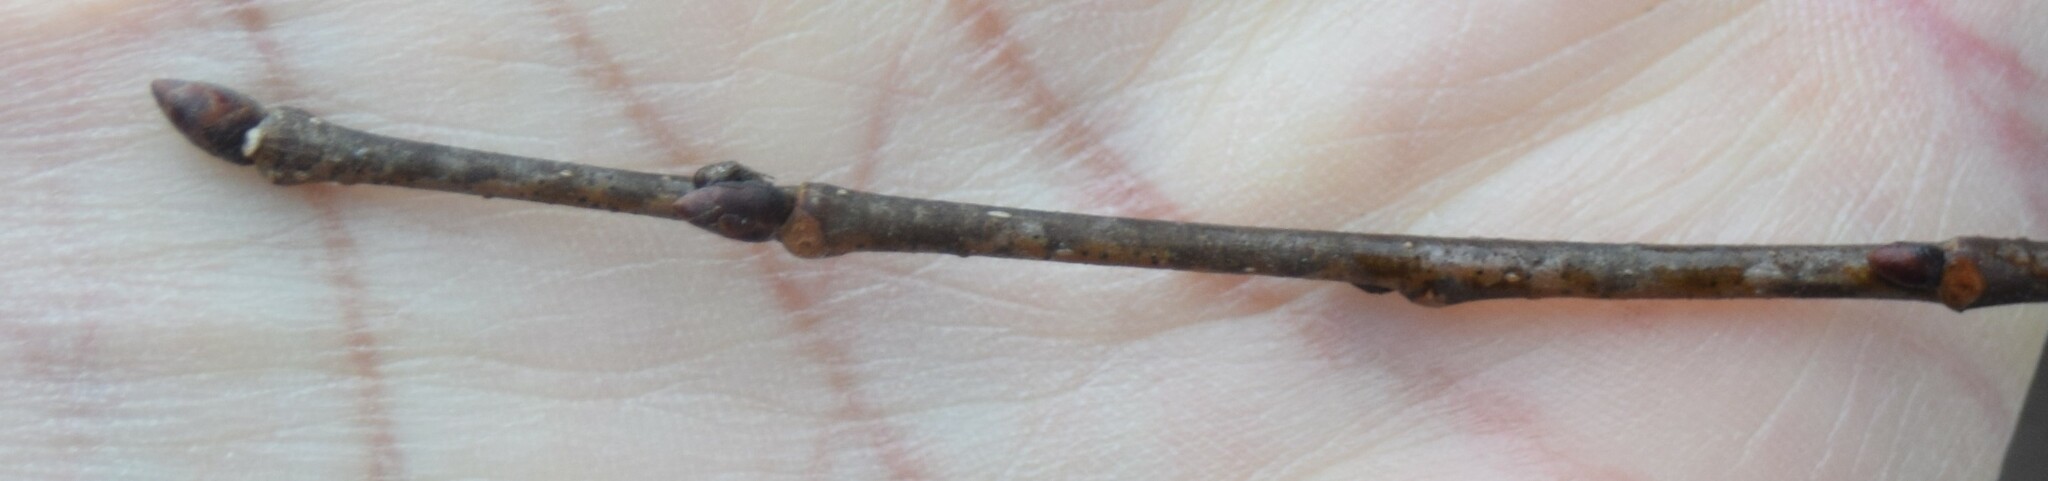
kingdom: Plantae
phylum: Tracheophyta
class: Magnoliopsida
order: Rosales
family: Ulmaceae
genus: Ulmus
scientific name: Ulmus americana
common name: American elm
